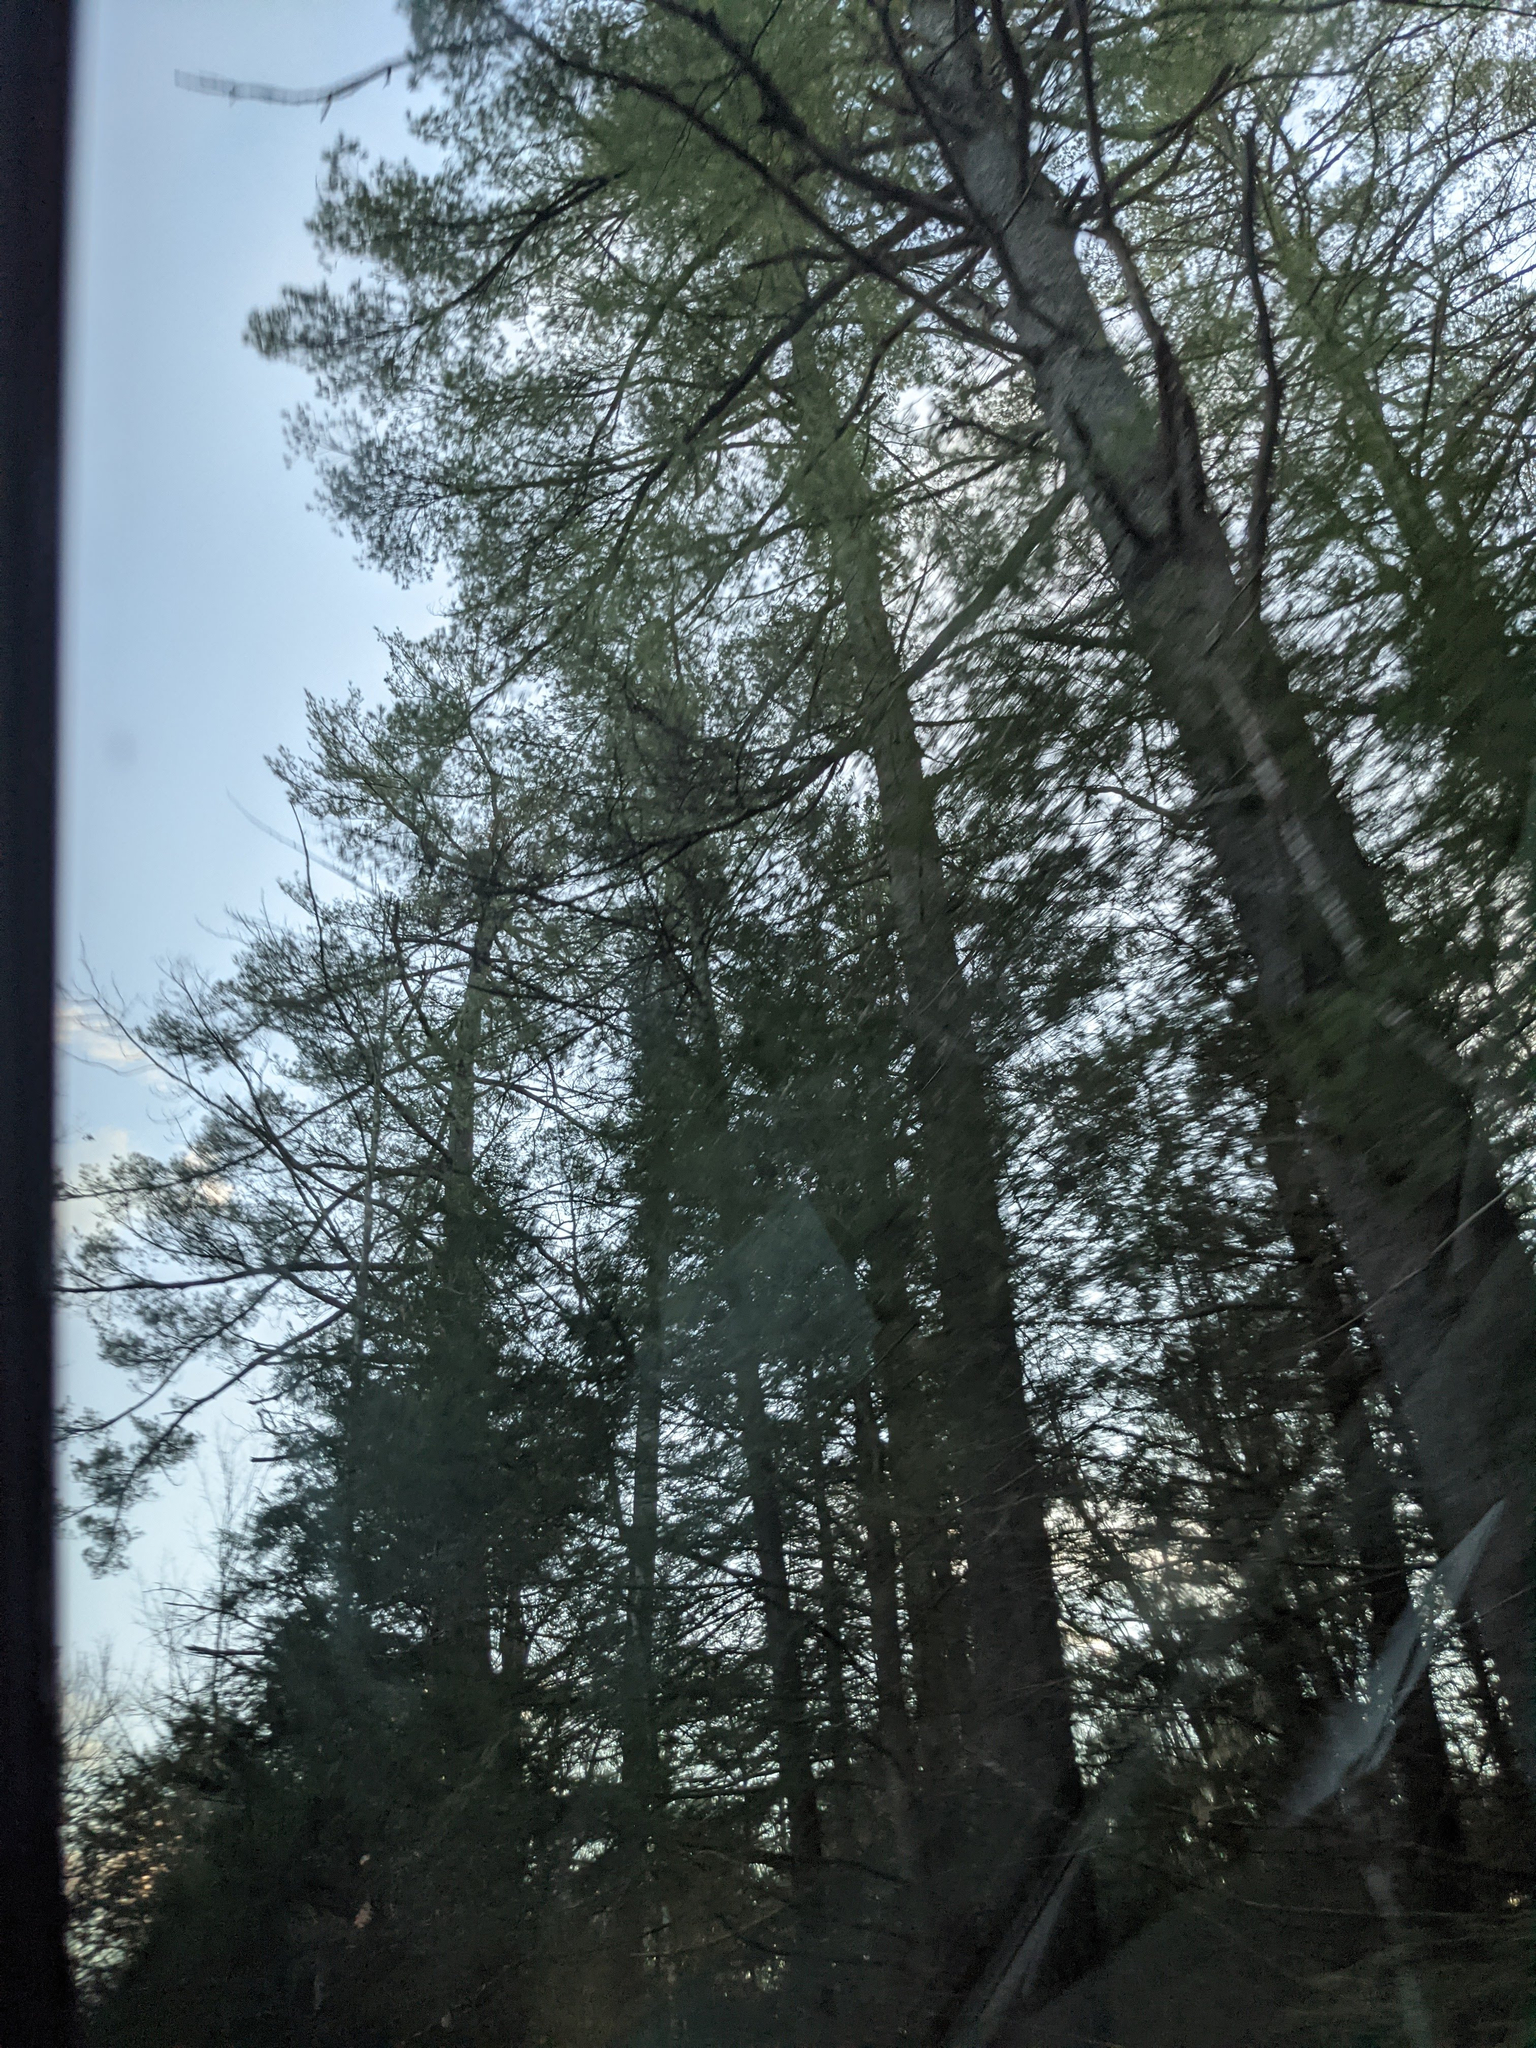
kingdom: Plantae
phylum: Tracheophyta
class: Pinopsida
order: Pinales
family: Pinaceae
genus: Pinus
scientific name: Pinus strobus
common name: Weymouth pine
